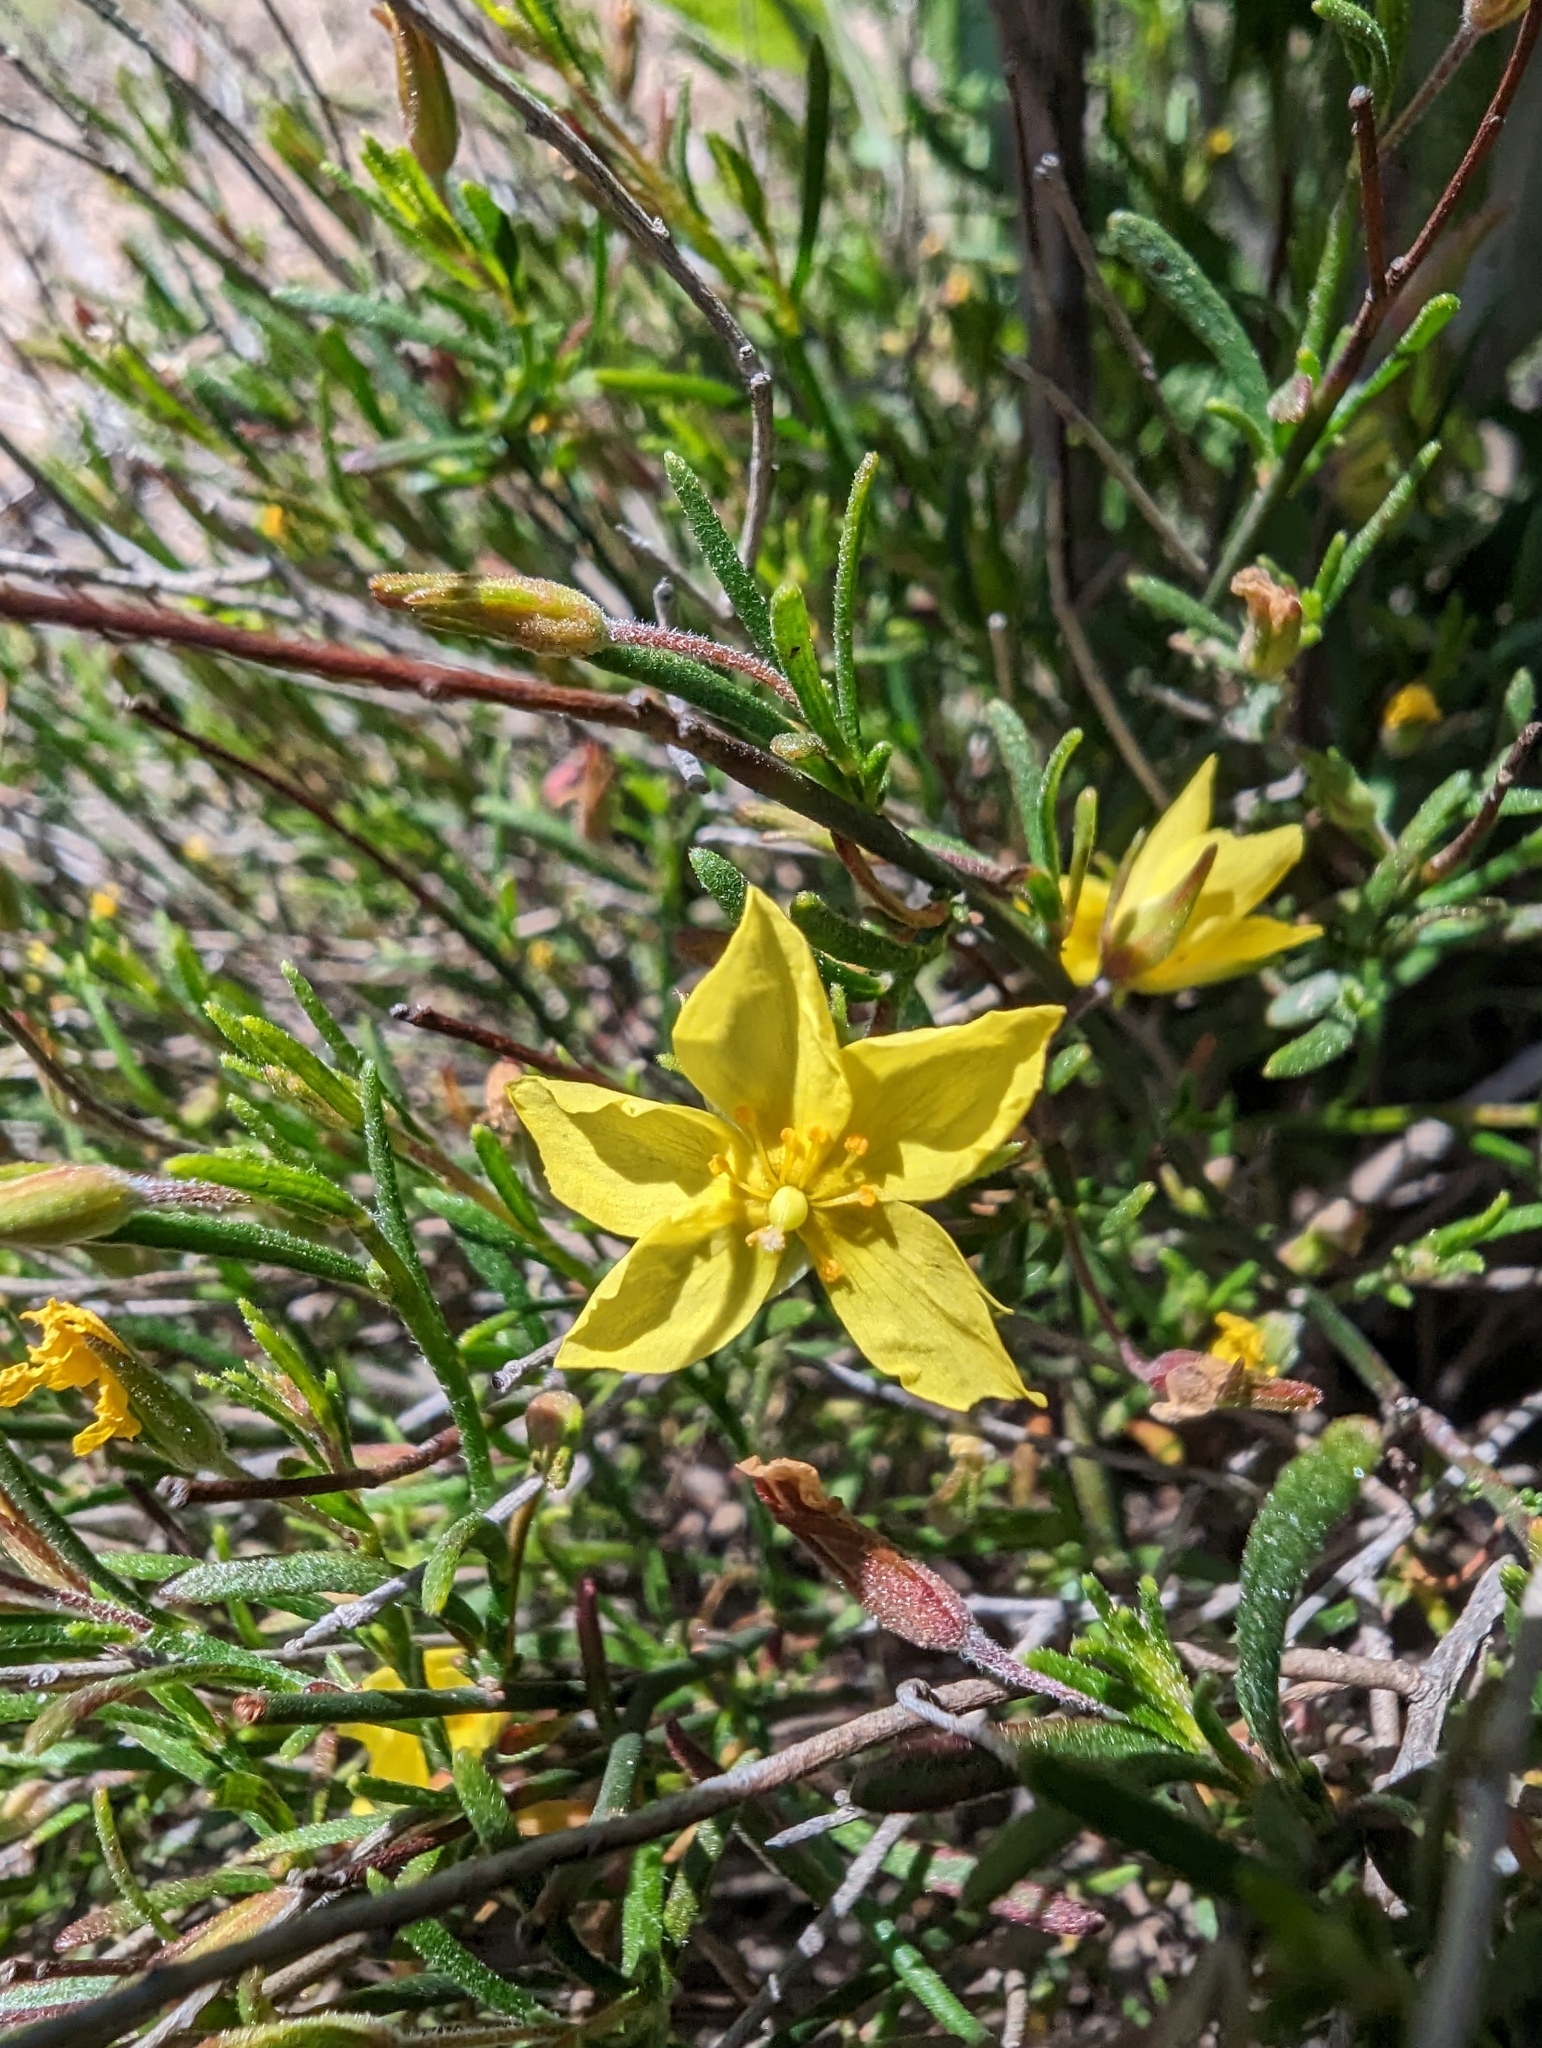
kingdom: Plantae
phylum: Tracheophyta
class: Magnoliopsida
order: Malvales
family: Cistaceae
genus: Crocanthemum
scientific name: Crocanthemum scoparium
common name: Broom-rose
